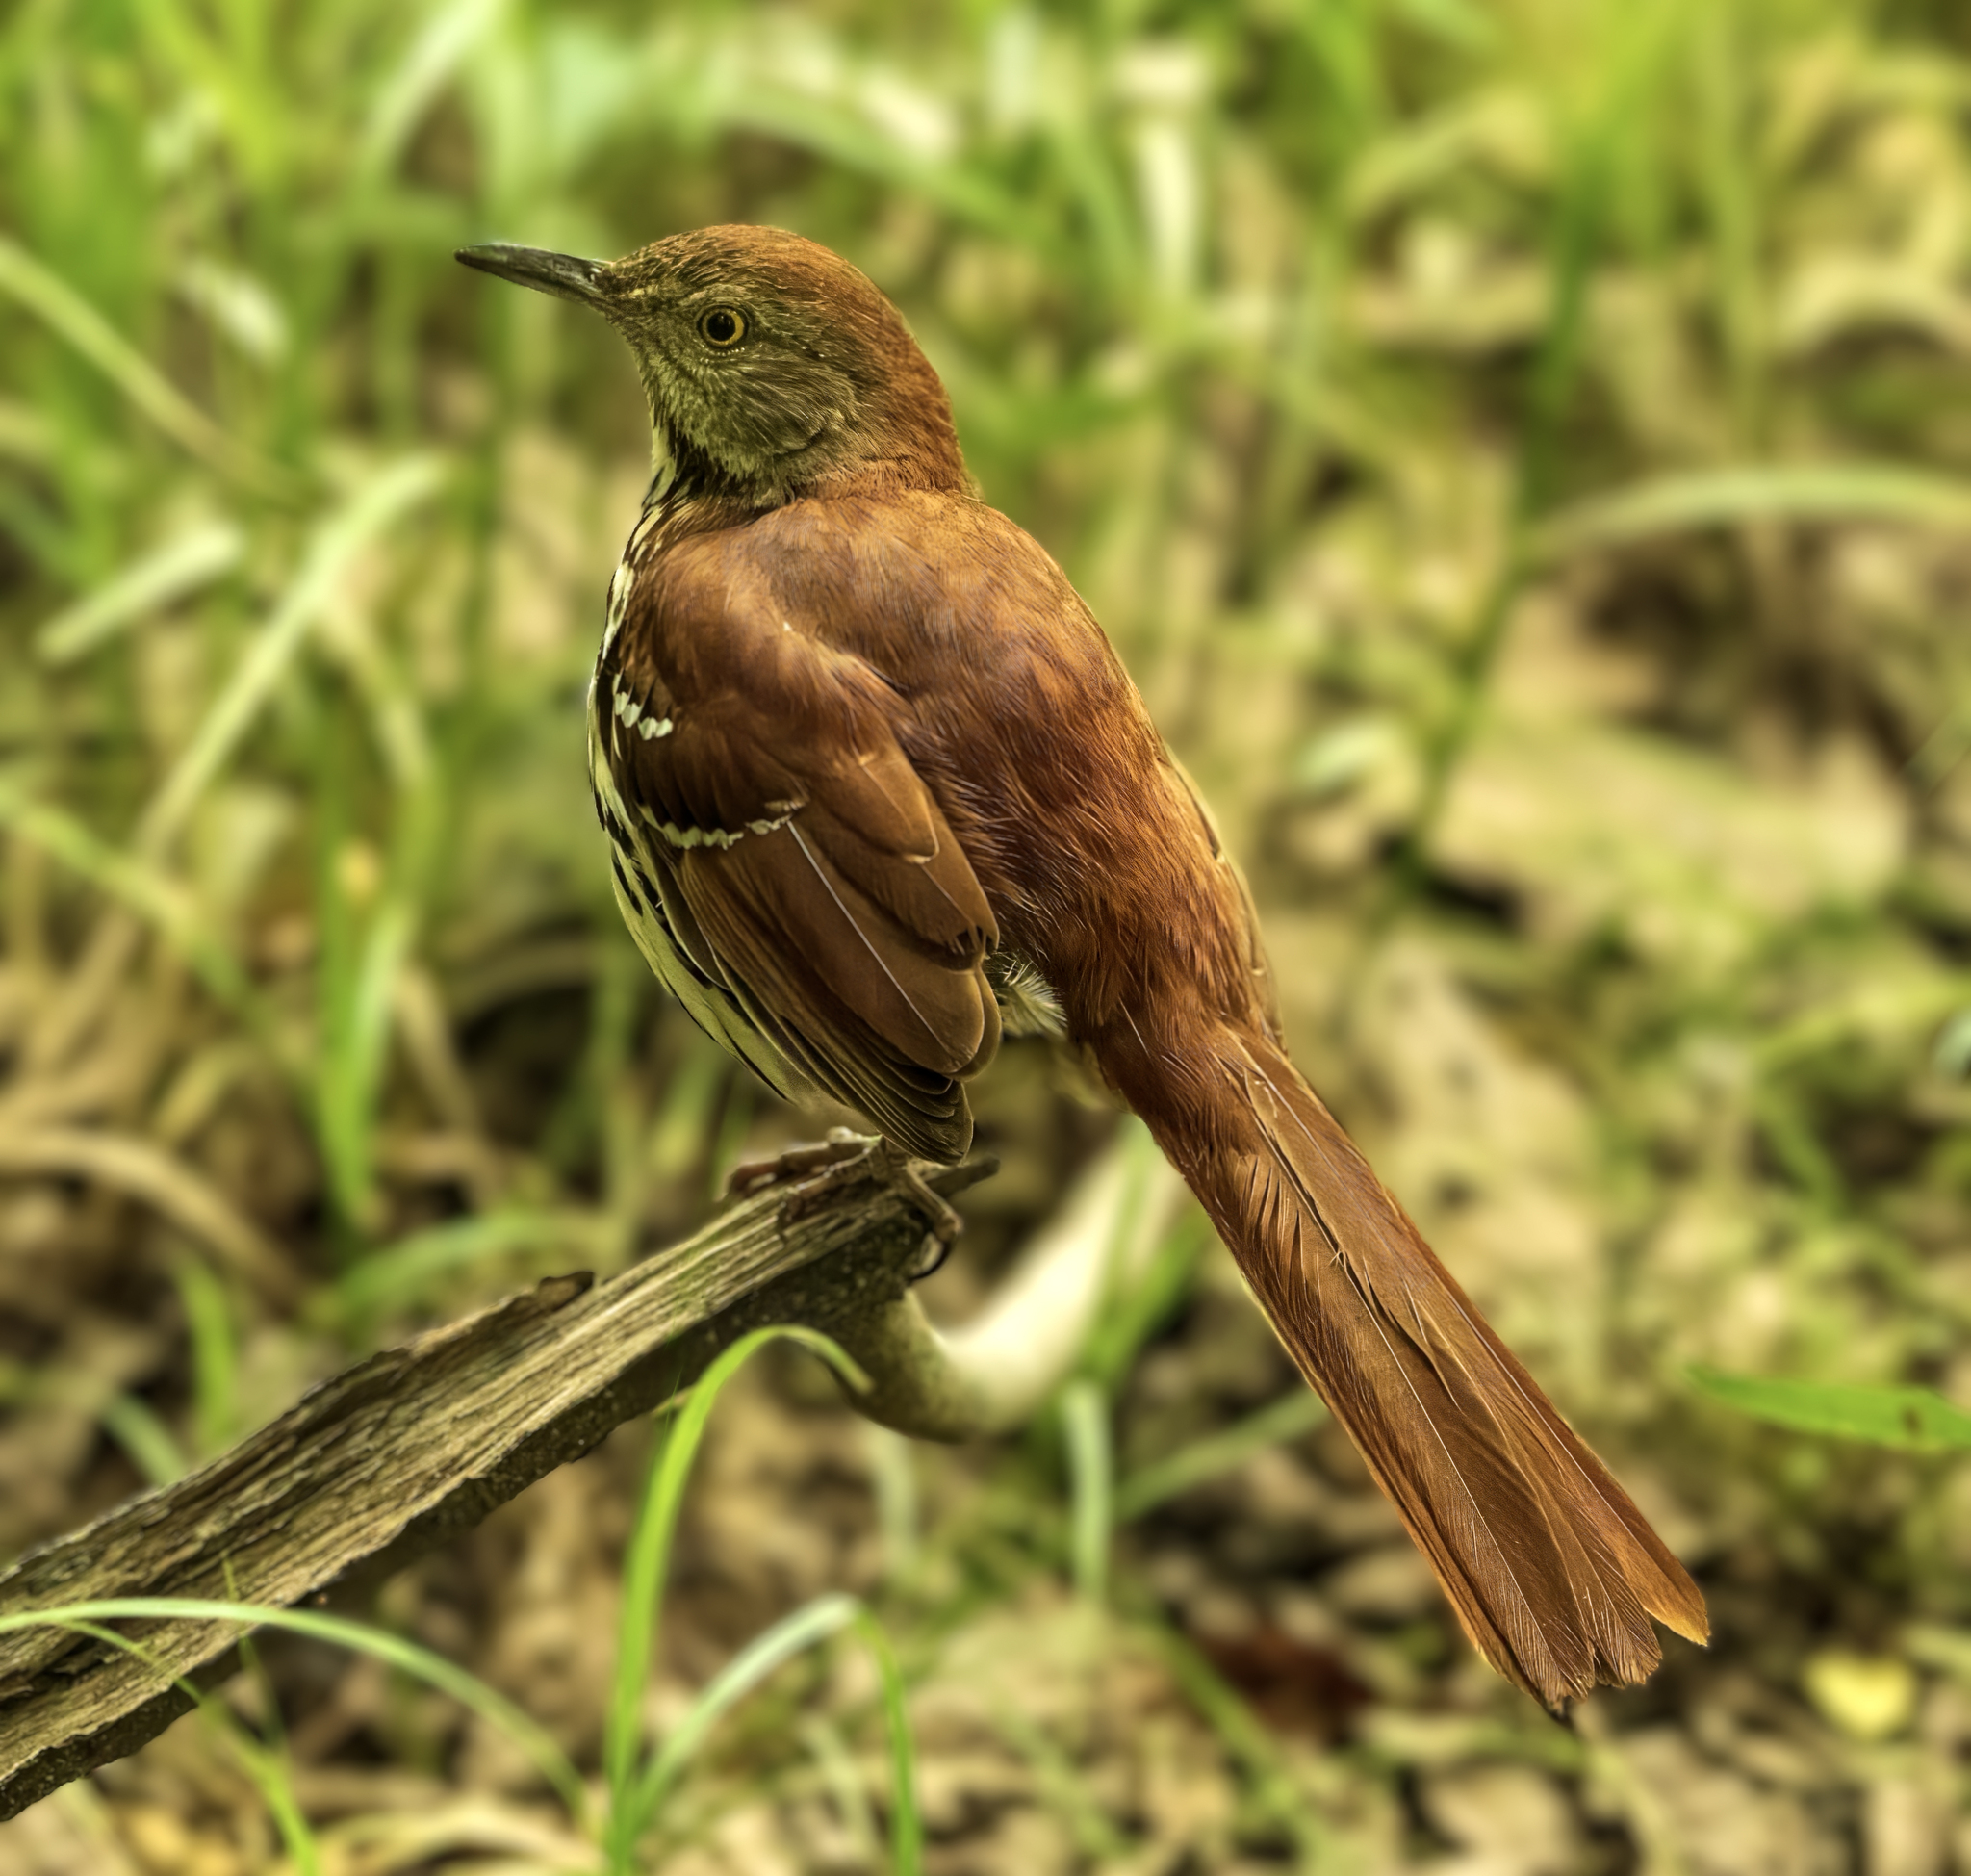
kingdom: Animalia
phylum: Chordata
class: Aves
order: Passeriformes
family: Mimidae
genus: Toxostoma
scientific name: Toxostoma rufum
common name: Brown thrasher
